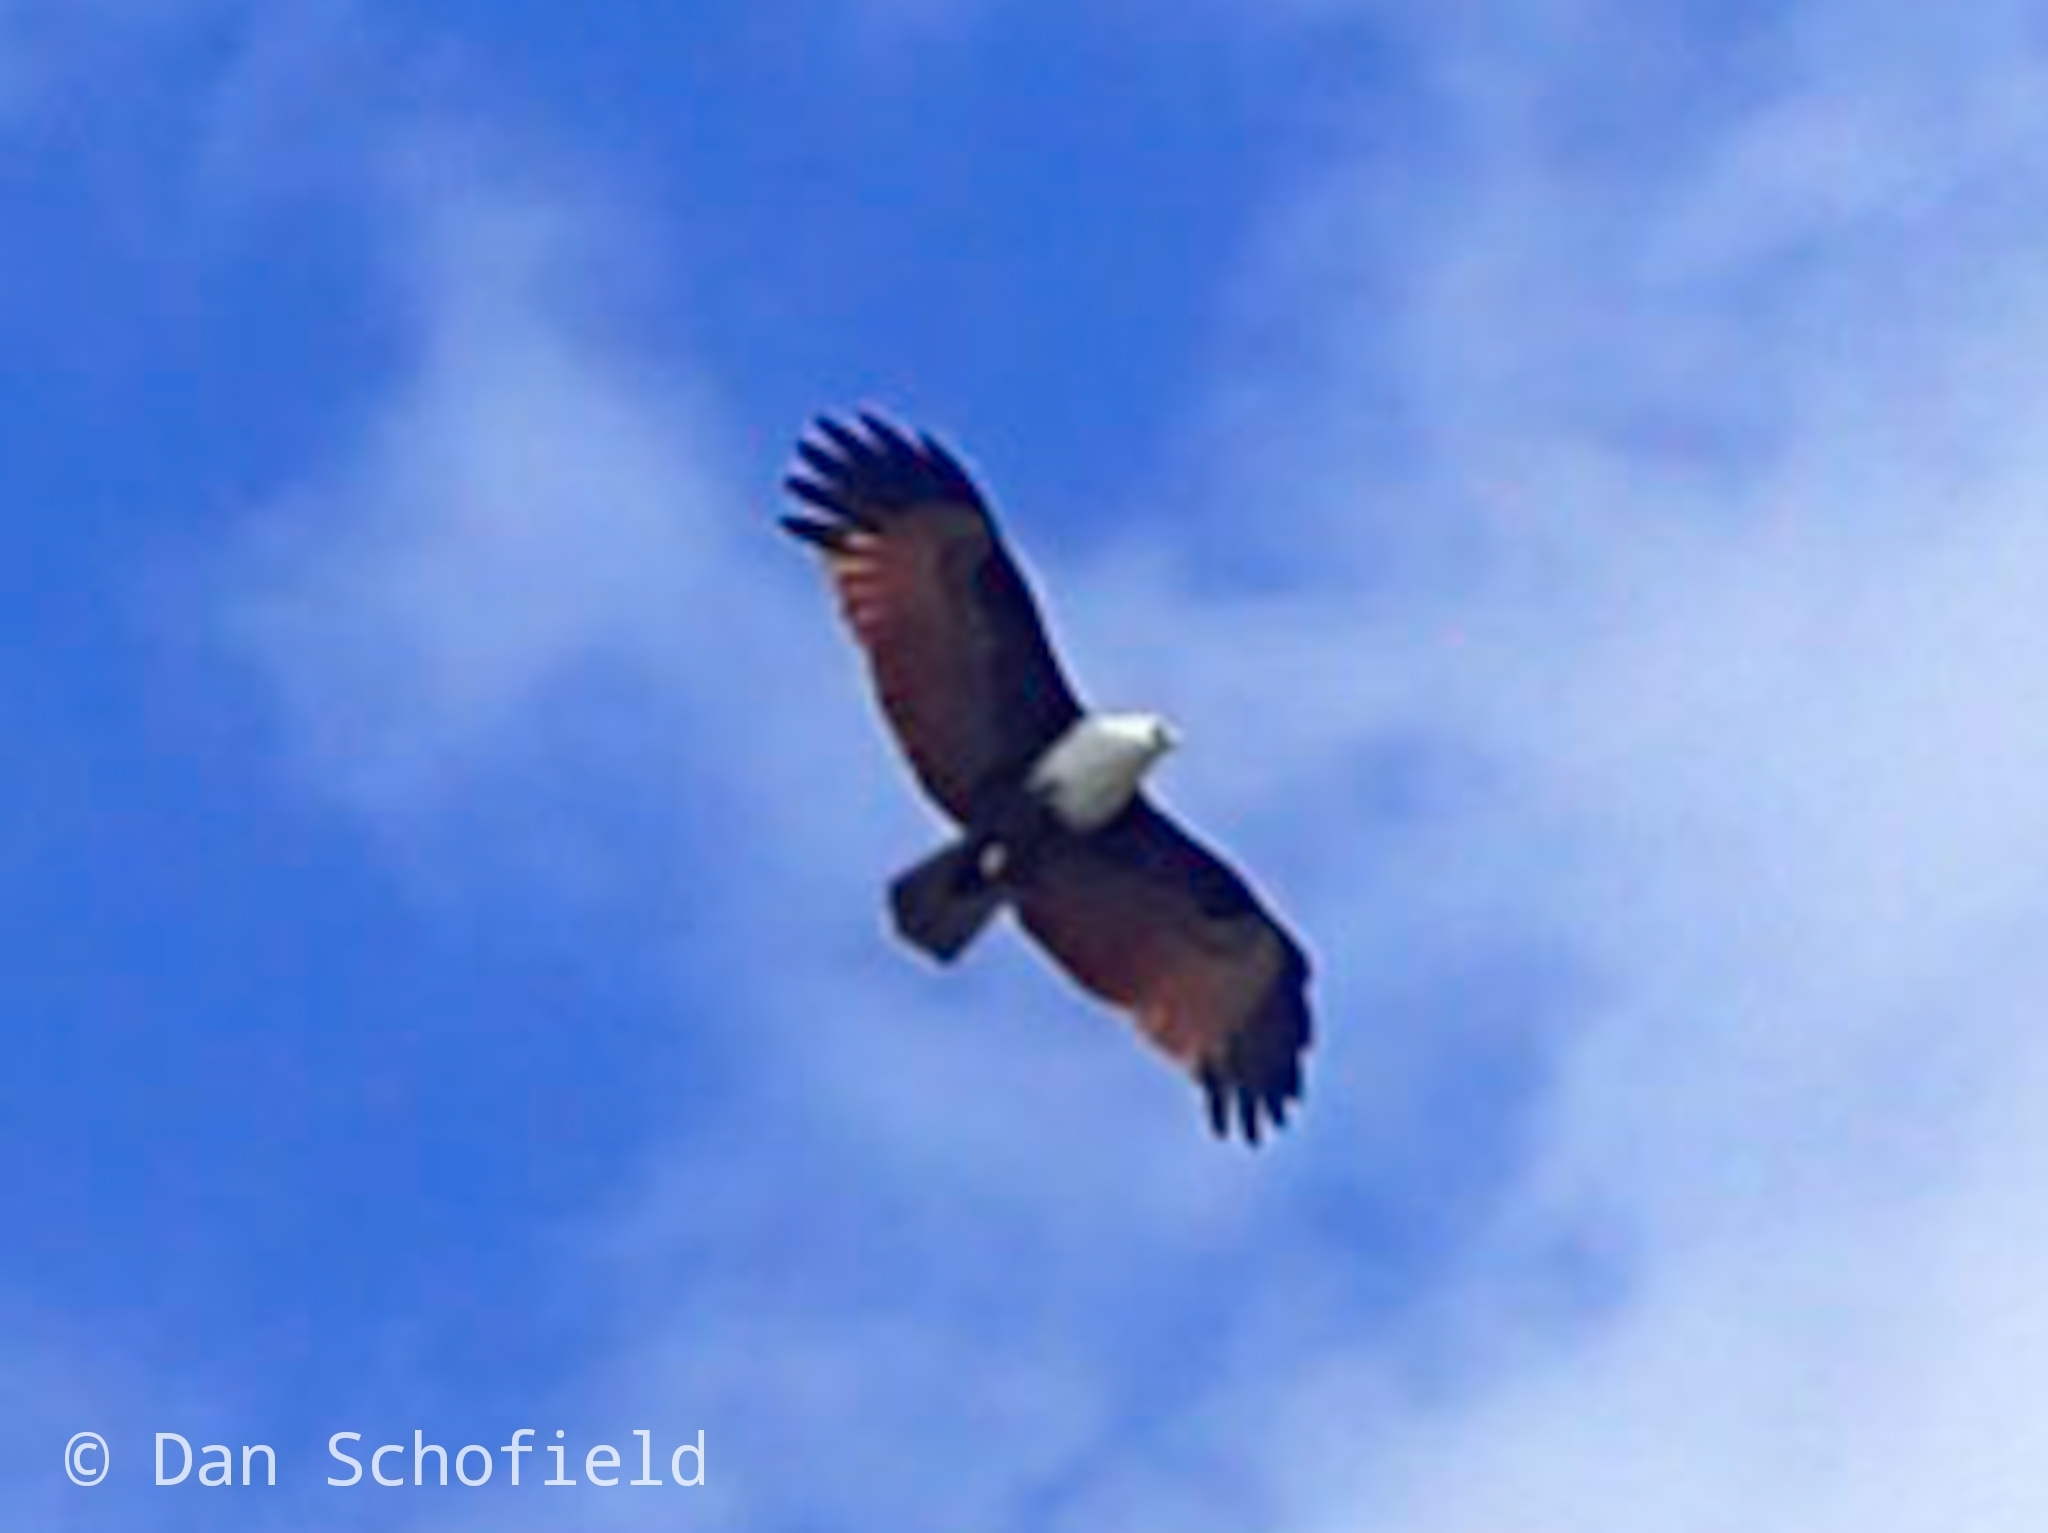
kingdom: Animalia
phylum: Chordata
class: Aves
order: Accipitriformes
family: Accipitridae
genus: Haliastur
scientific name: Haliastur indus
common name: Brahminy kite
